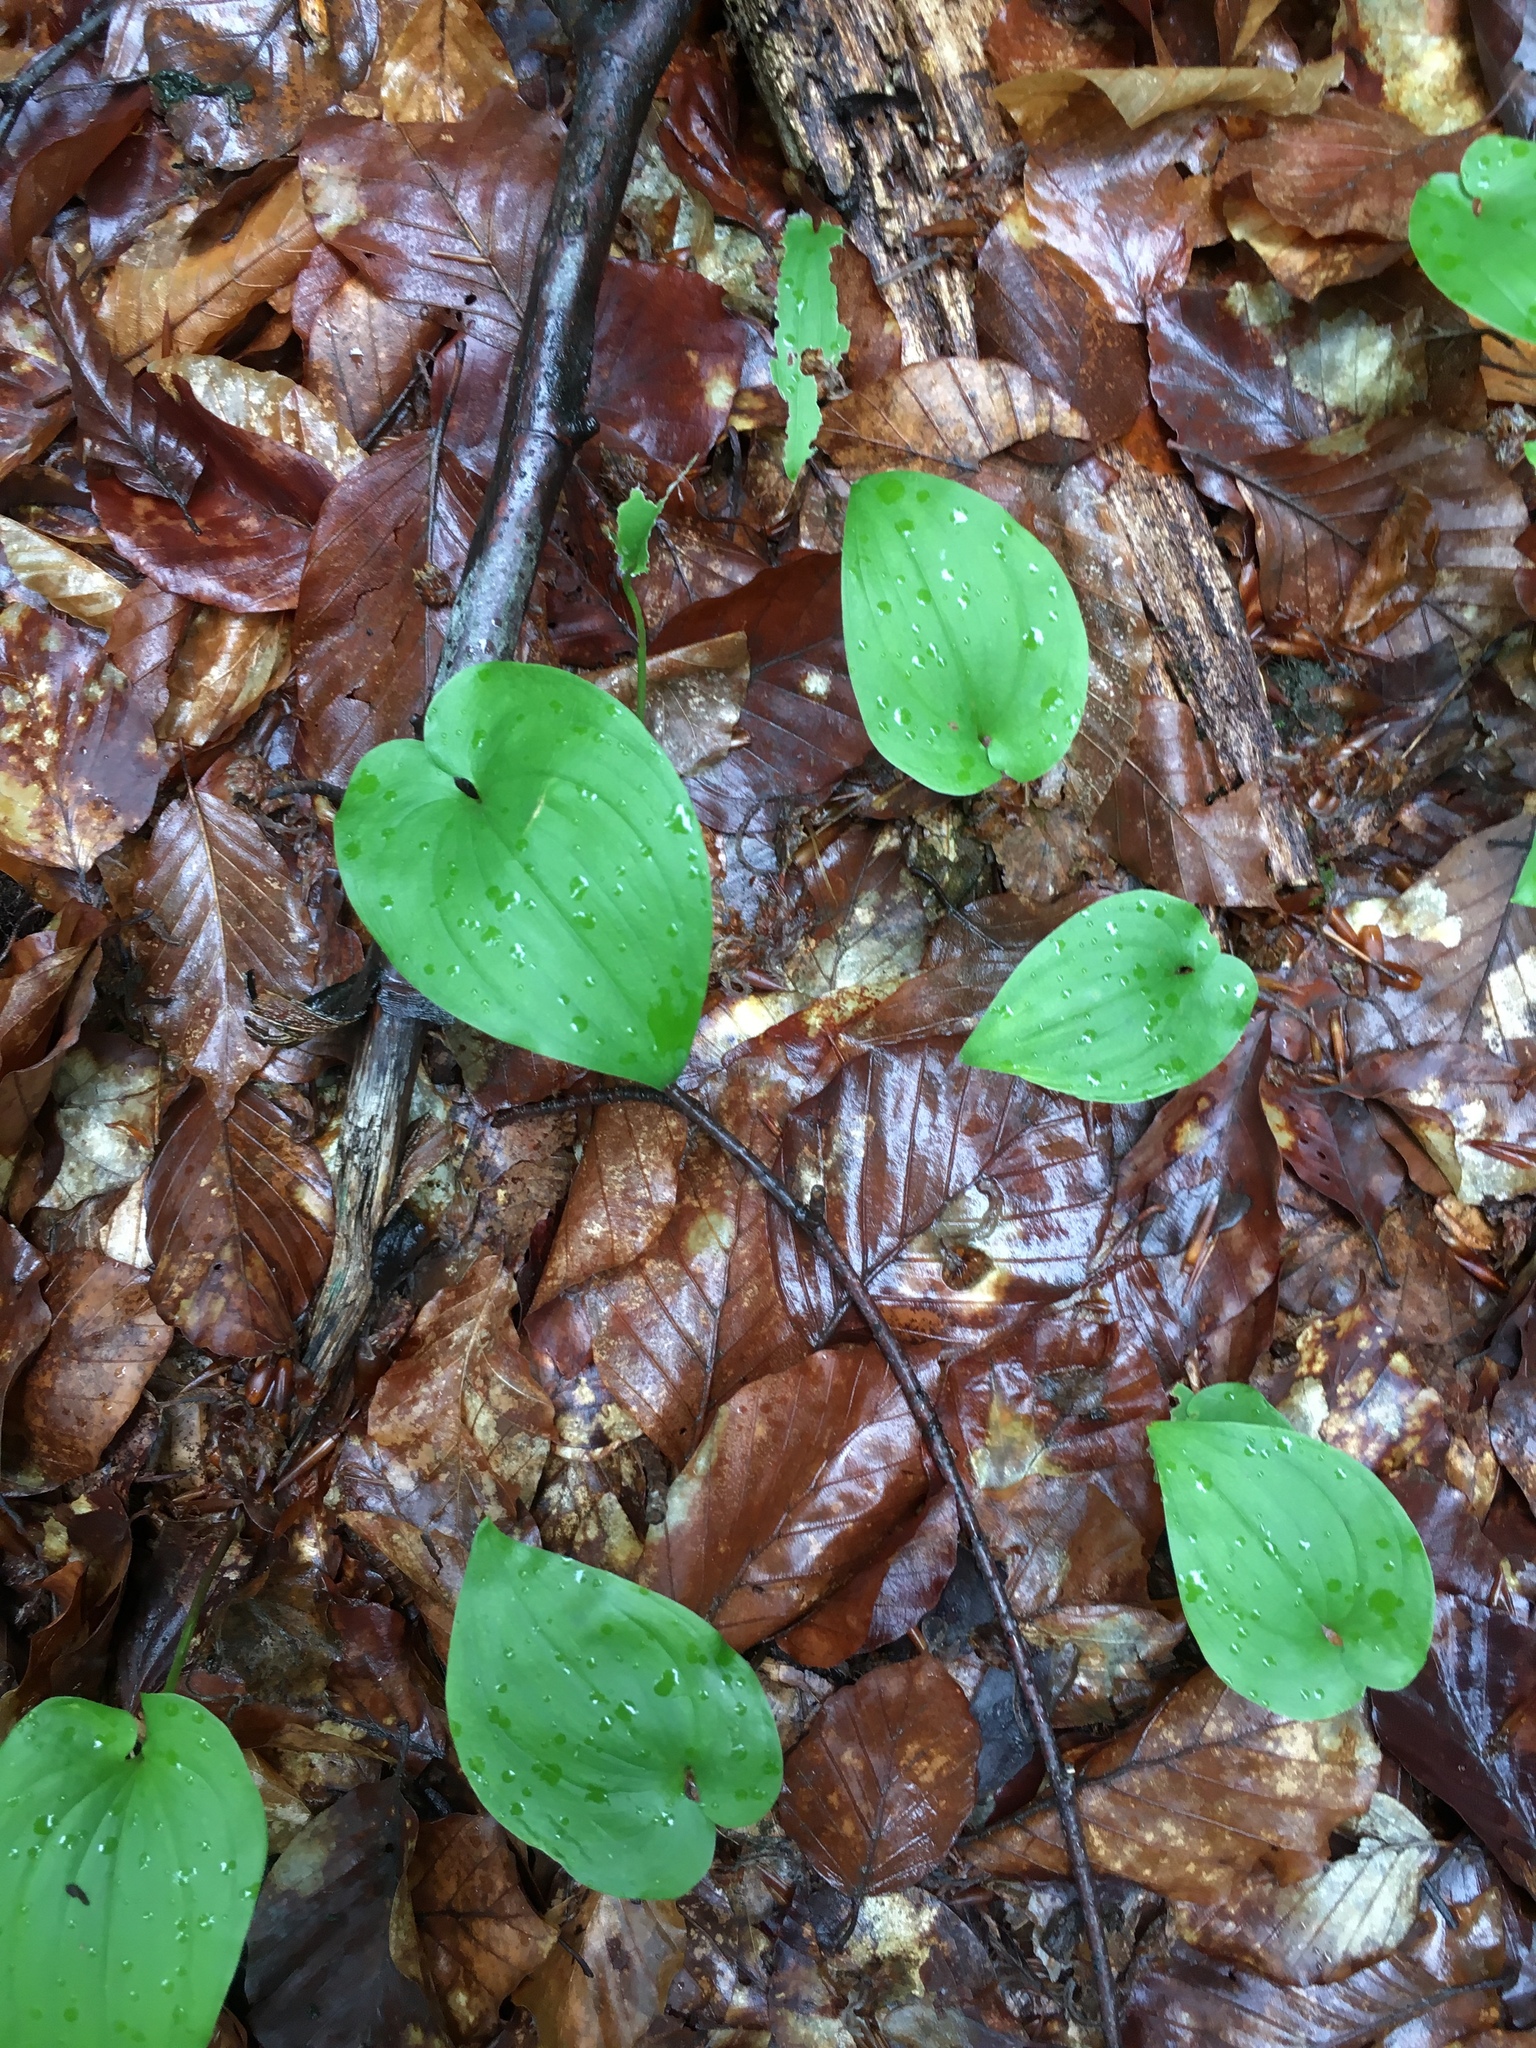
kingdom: Plantae
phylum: Tracheophyta
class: Liliopsida
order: Asparagales
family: Asparagaceae
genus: Maianthemum
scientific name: Maianthemum bifolium
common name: May lily
